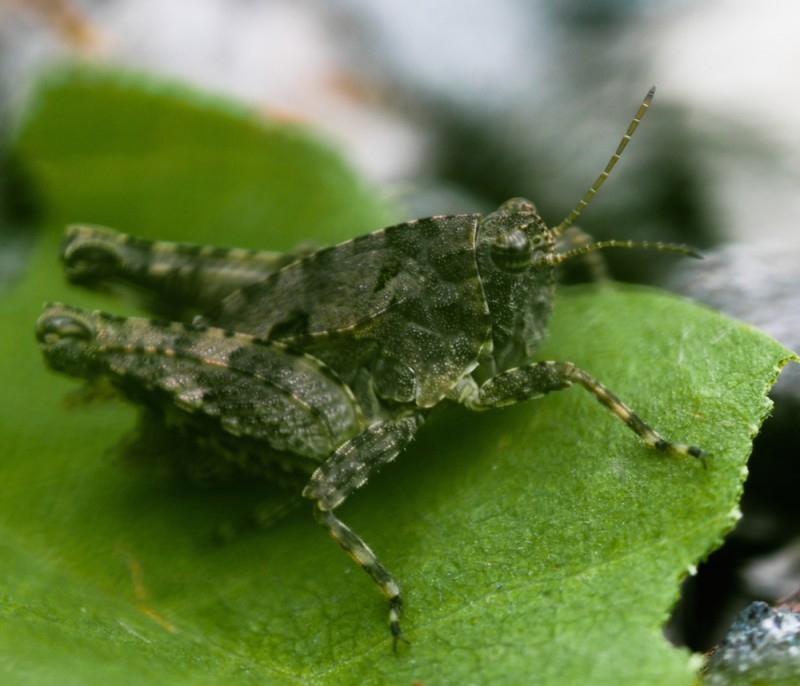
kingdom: Animalia
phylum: Arthropoda
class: Insecta
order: Orthoptera
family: Tetrigidae
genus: Tetrix
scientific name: Tetrix tenuicornis
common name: Long-horned groundhopper
